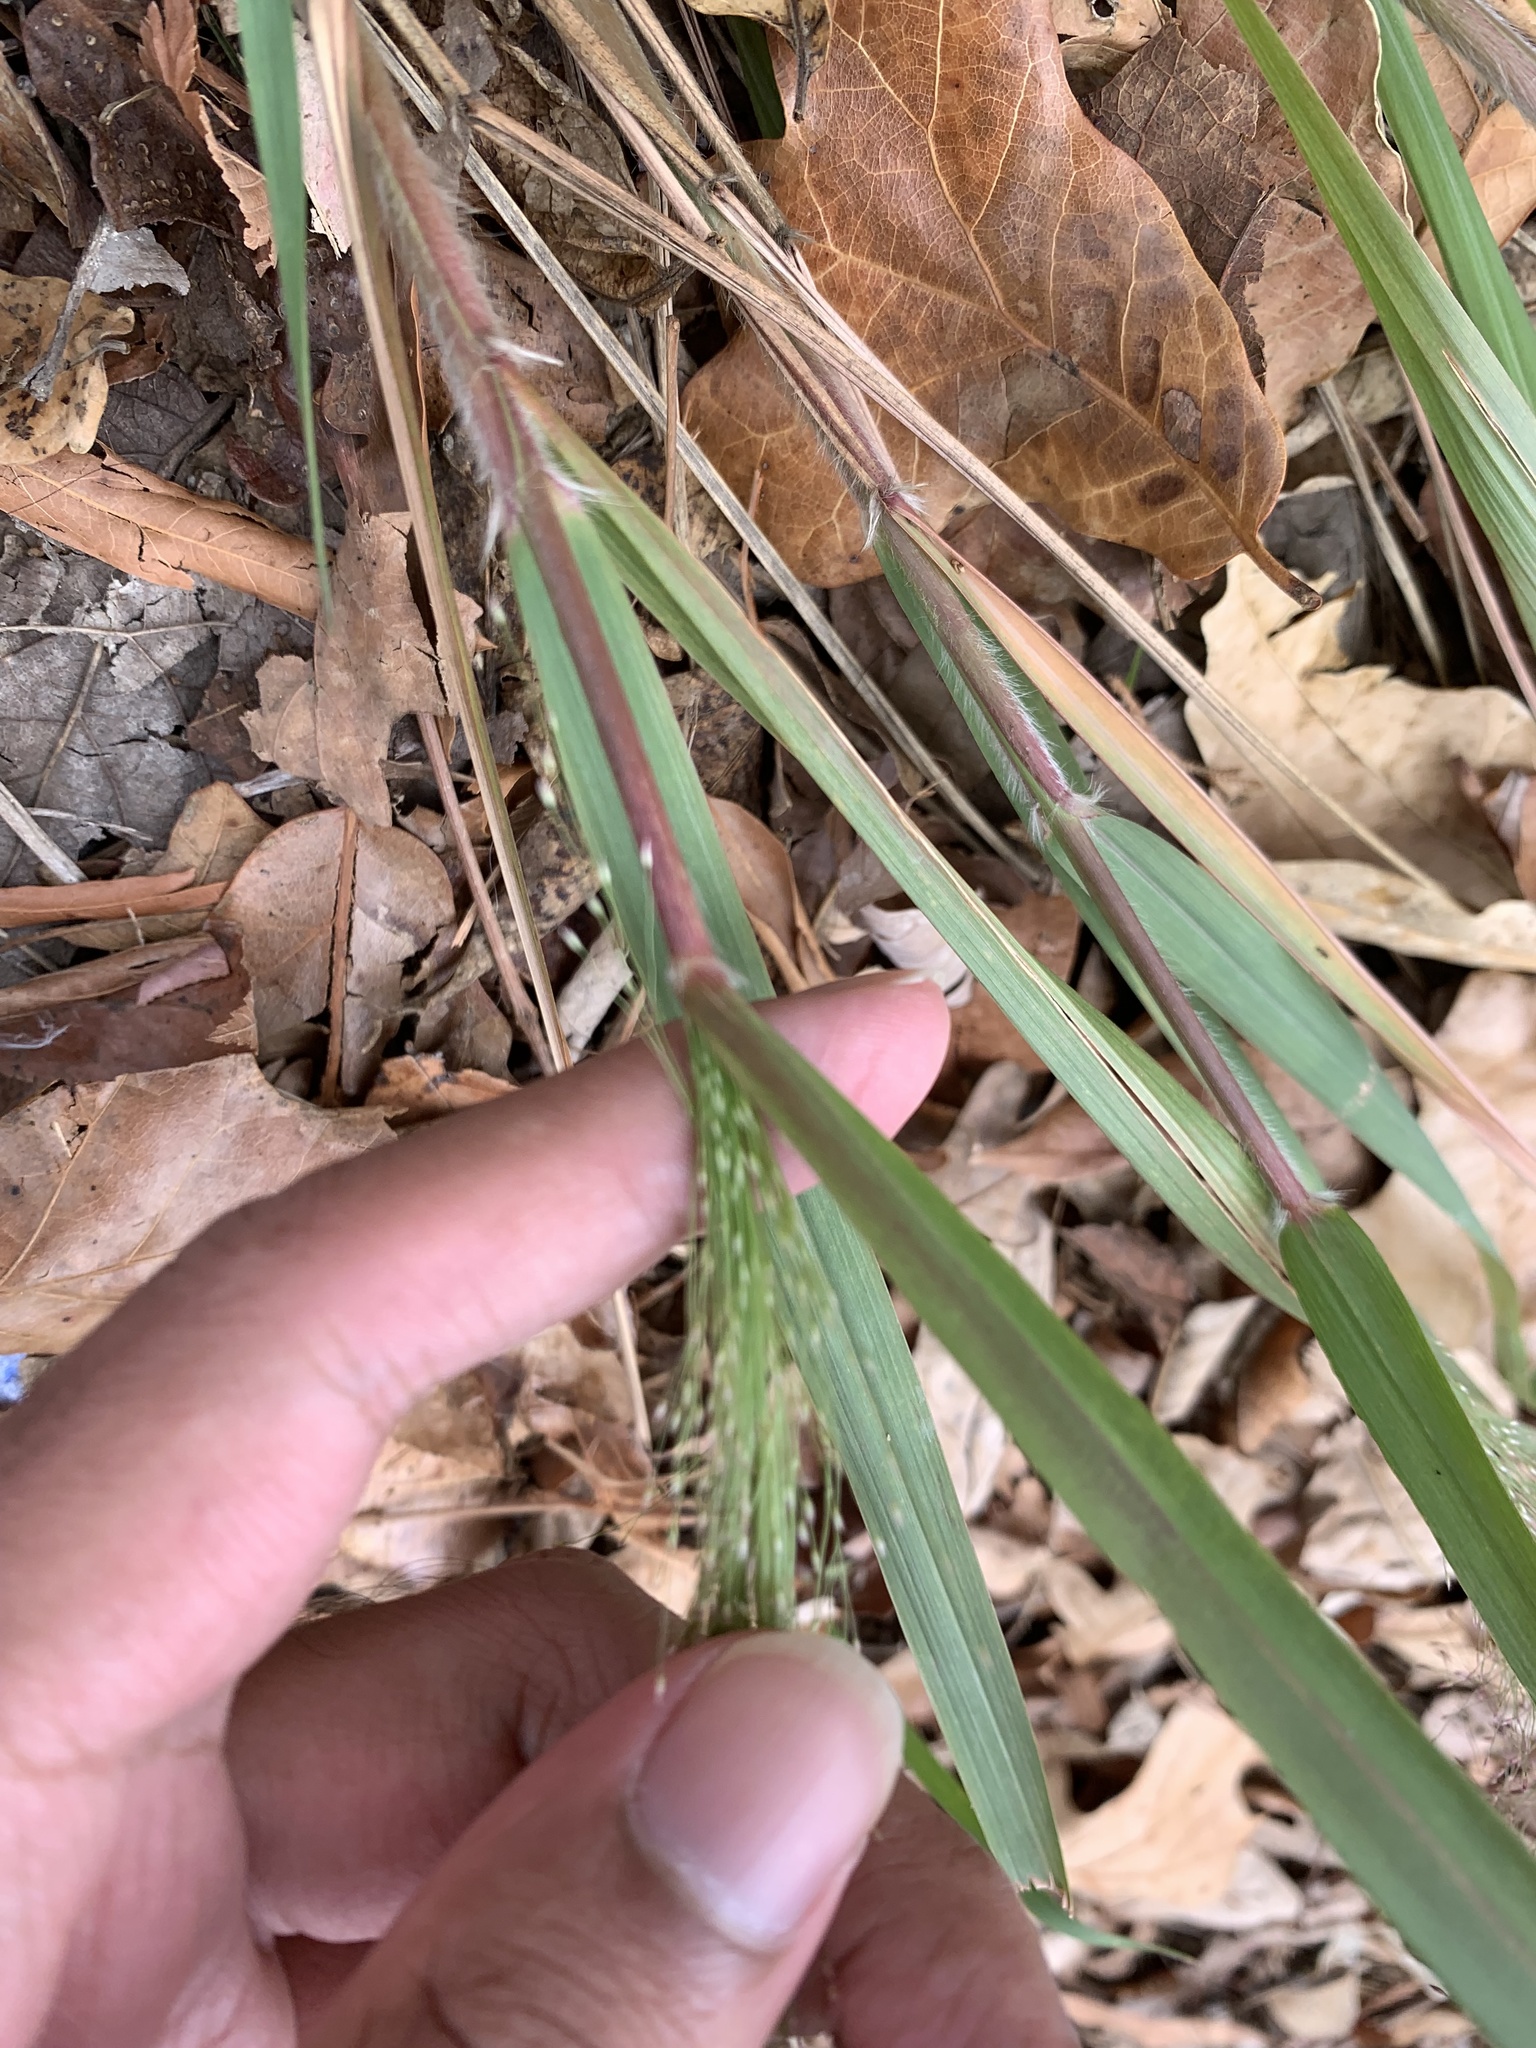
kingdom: Plantae
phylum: Tracheophyta
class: Liliopsida
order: Poales
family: Poaceae
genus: Eragrostis
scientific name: Eragrostis hirsuta
